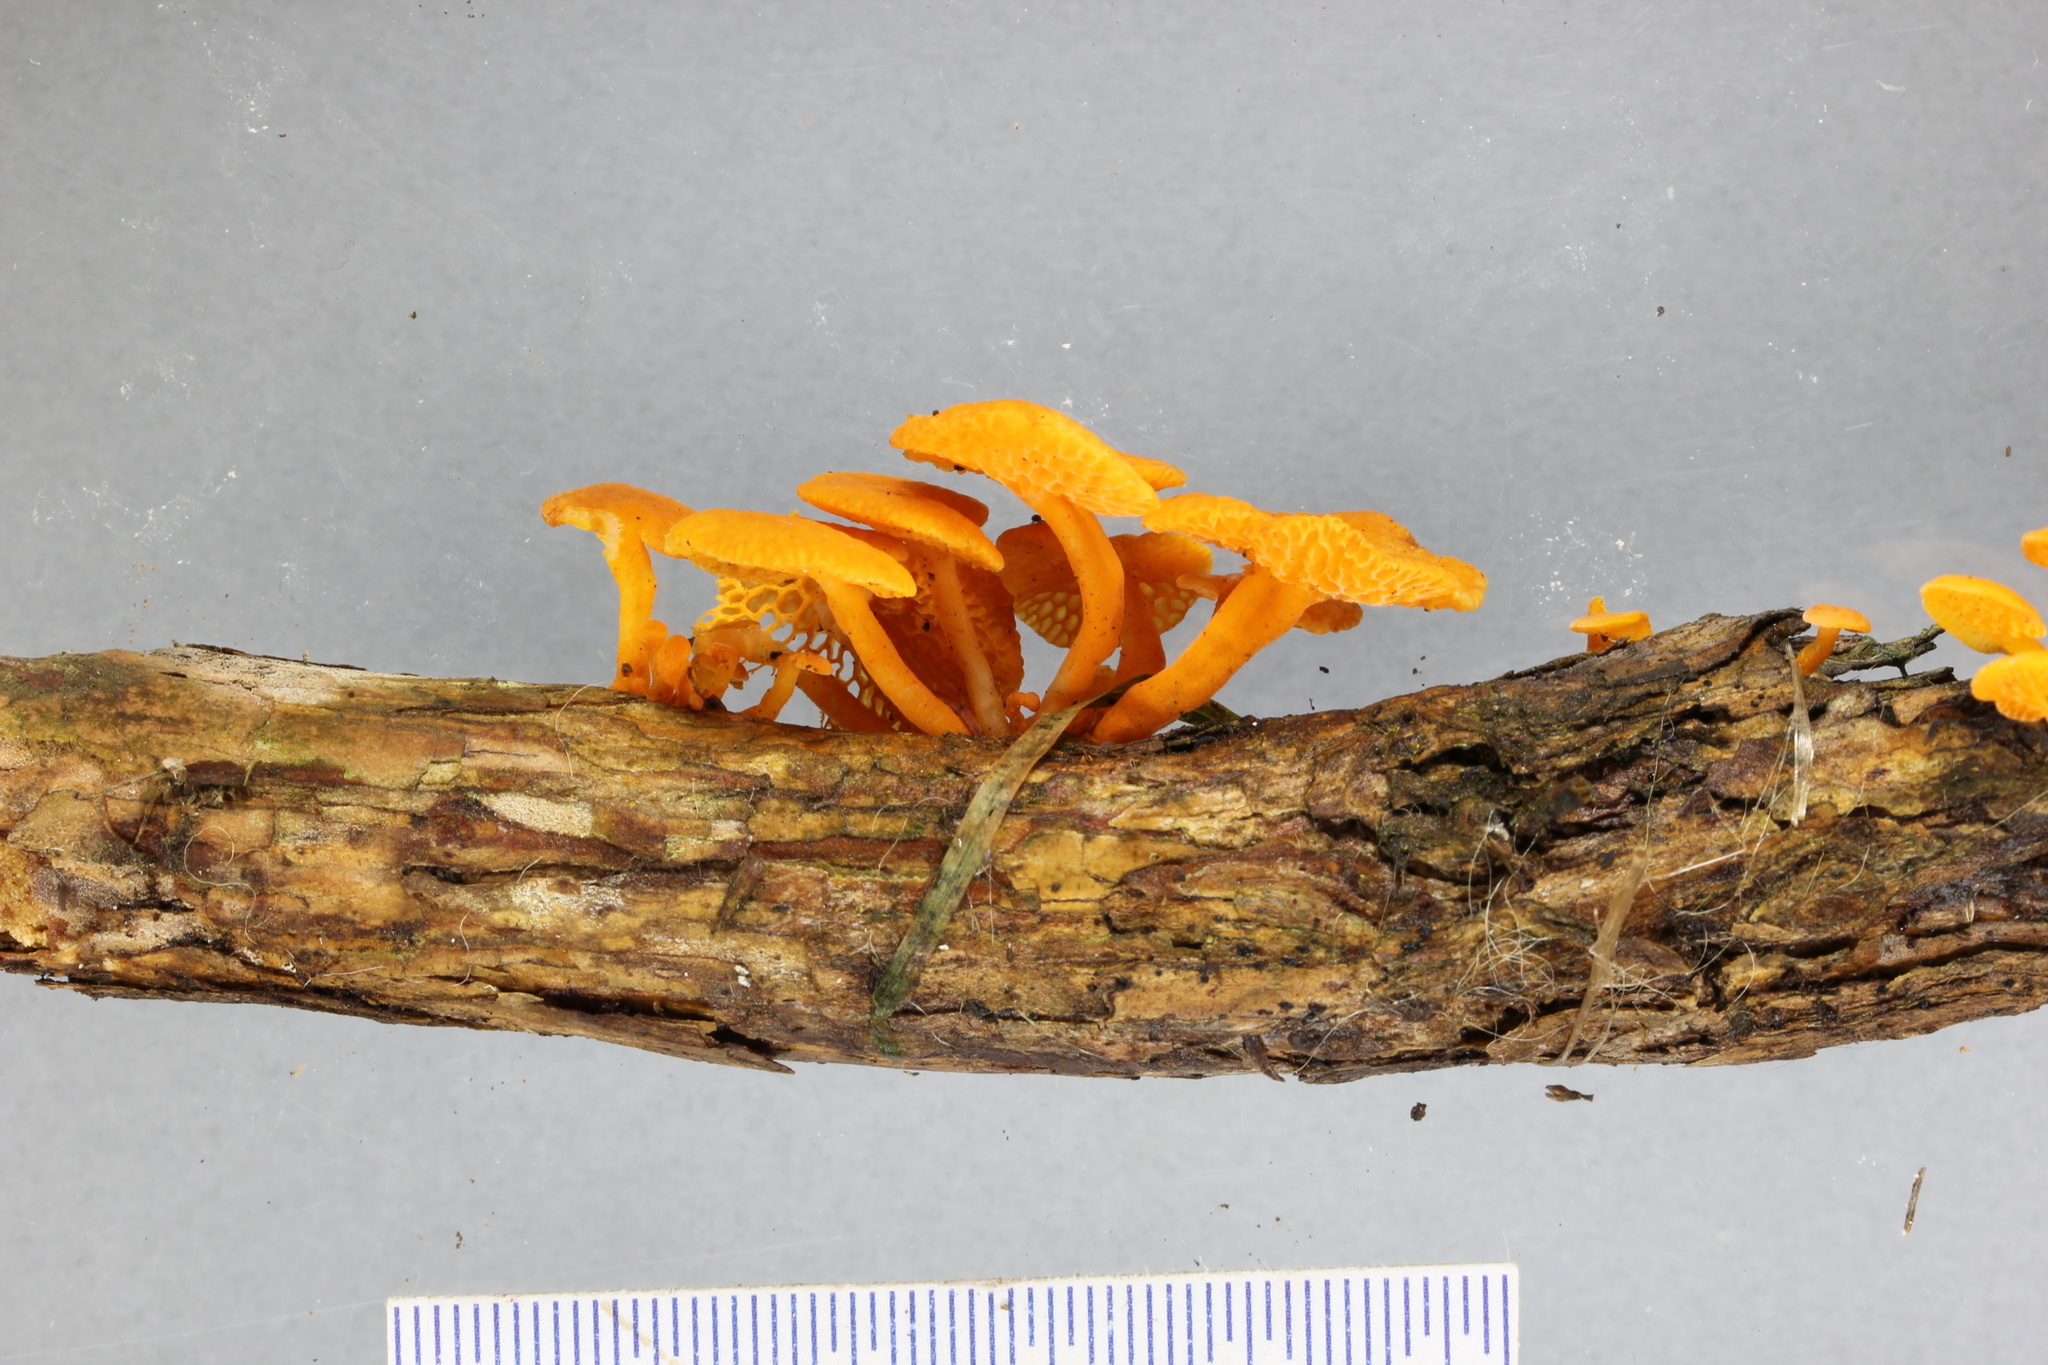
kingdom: Fungi
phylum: Basidiomycota
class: Agaricomycetes
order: Agaricales
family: Mycenaceae
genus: Favolaschia
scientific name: Favolaschia claudopus
